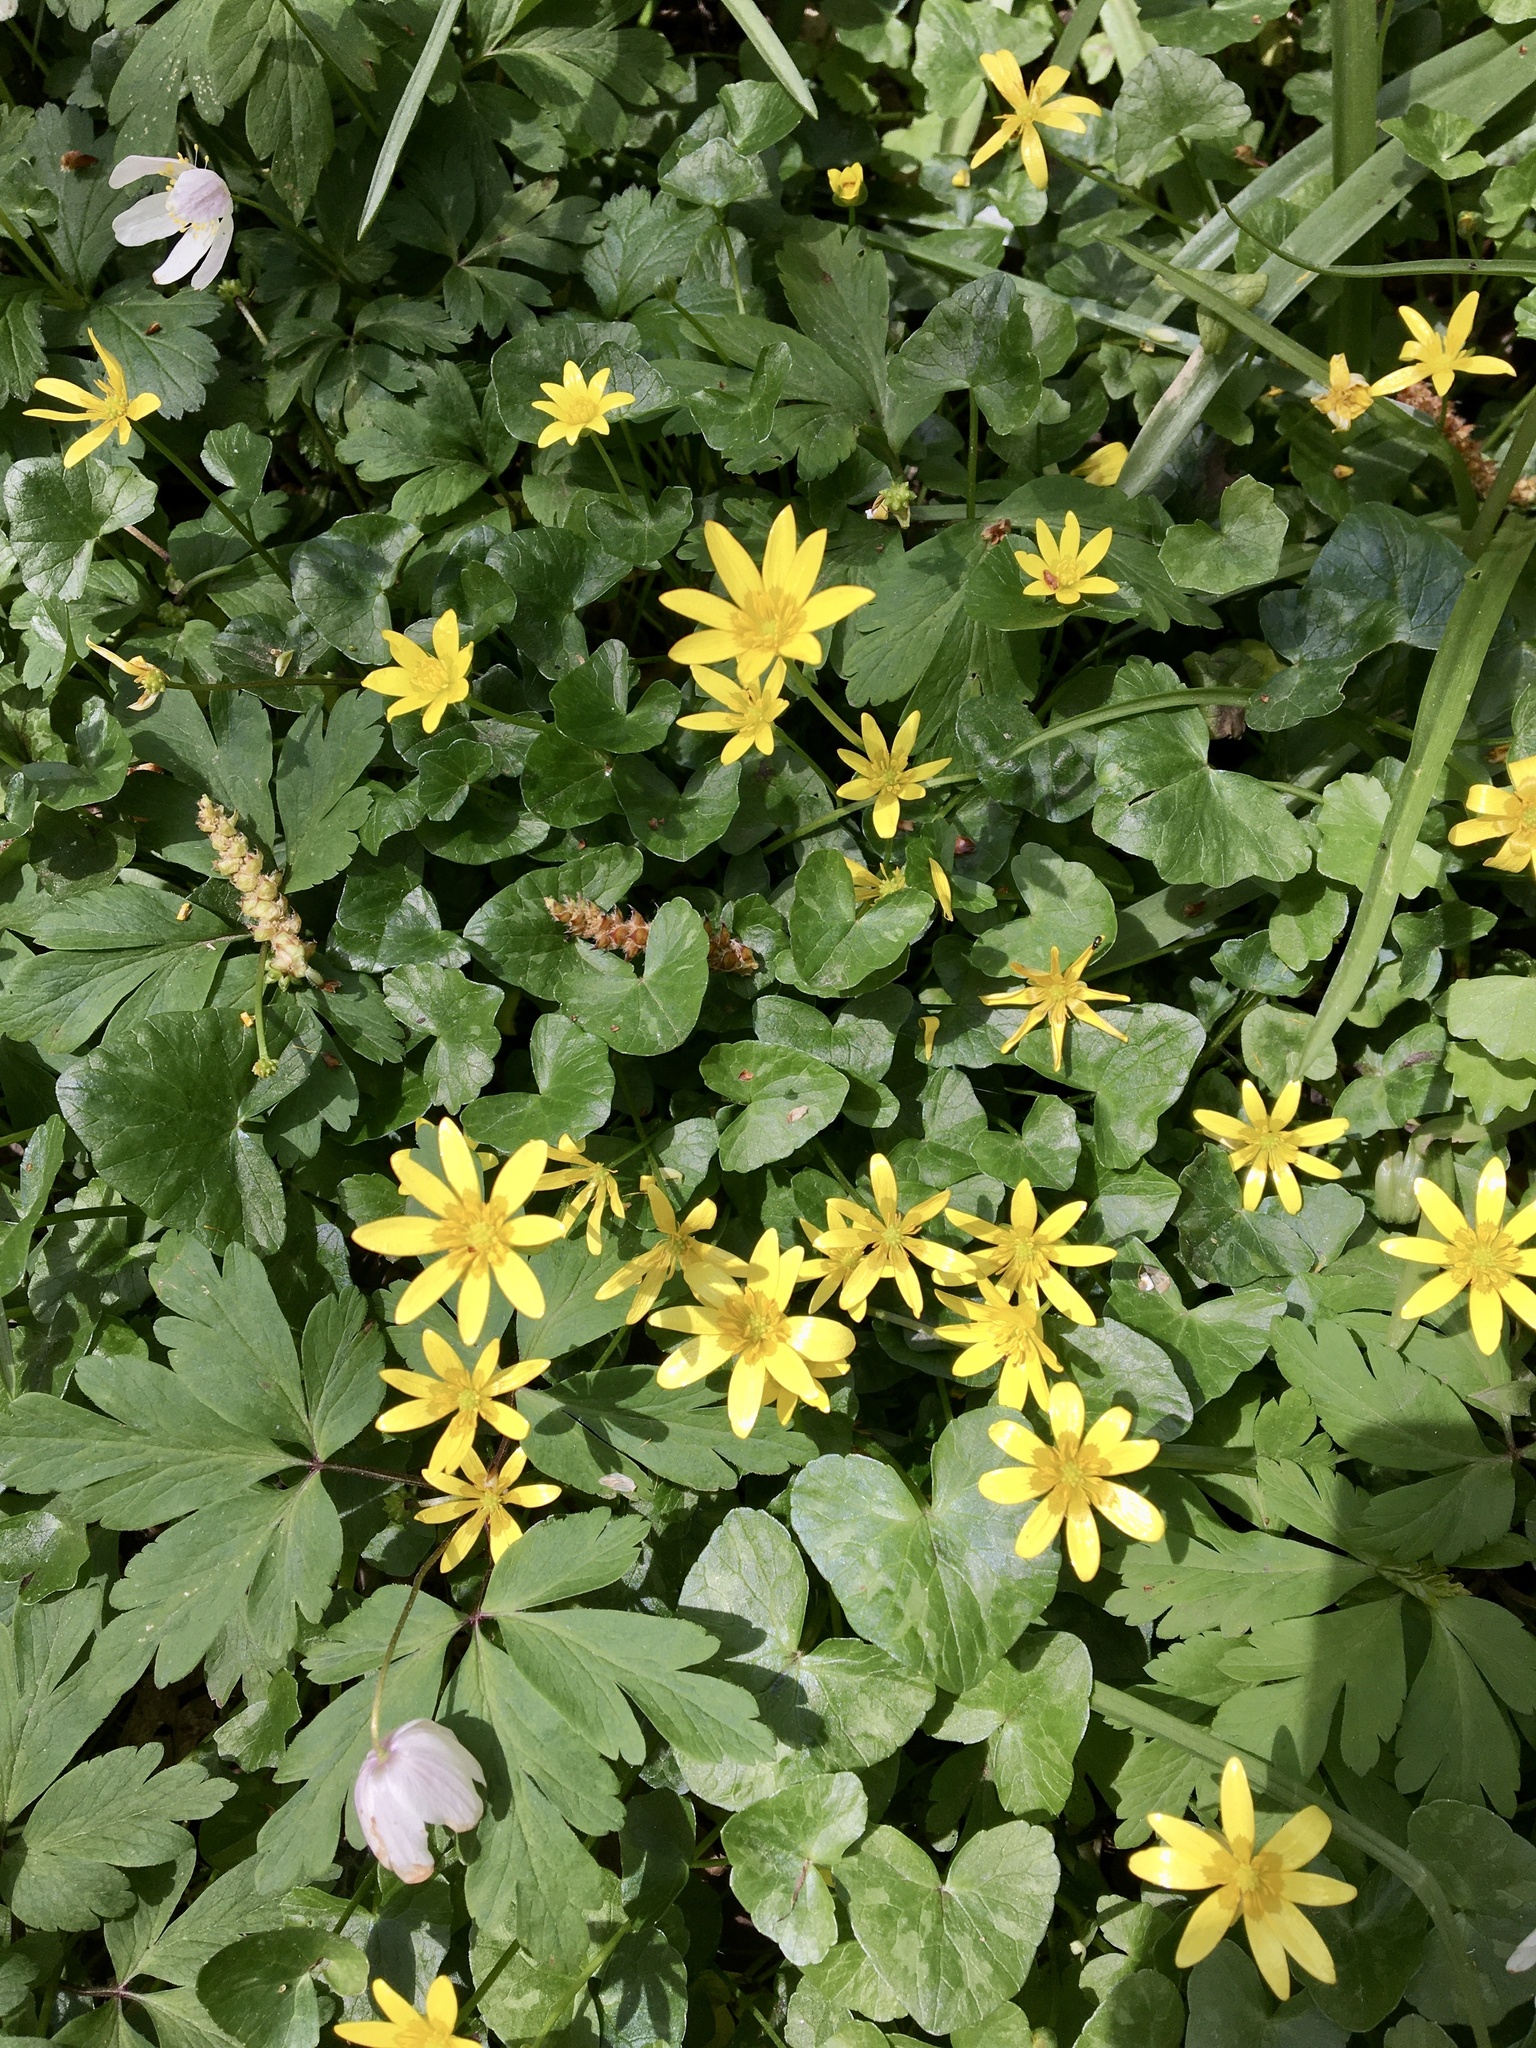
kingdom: Plantae
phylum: Tracheophyta
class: Magnoliopsida
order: Ranunculales
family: Ranunculaceae
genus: Ficaria
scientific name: Ficaria verna
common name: Lesser celandine
